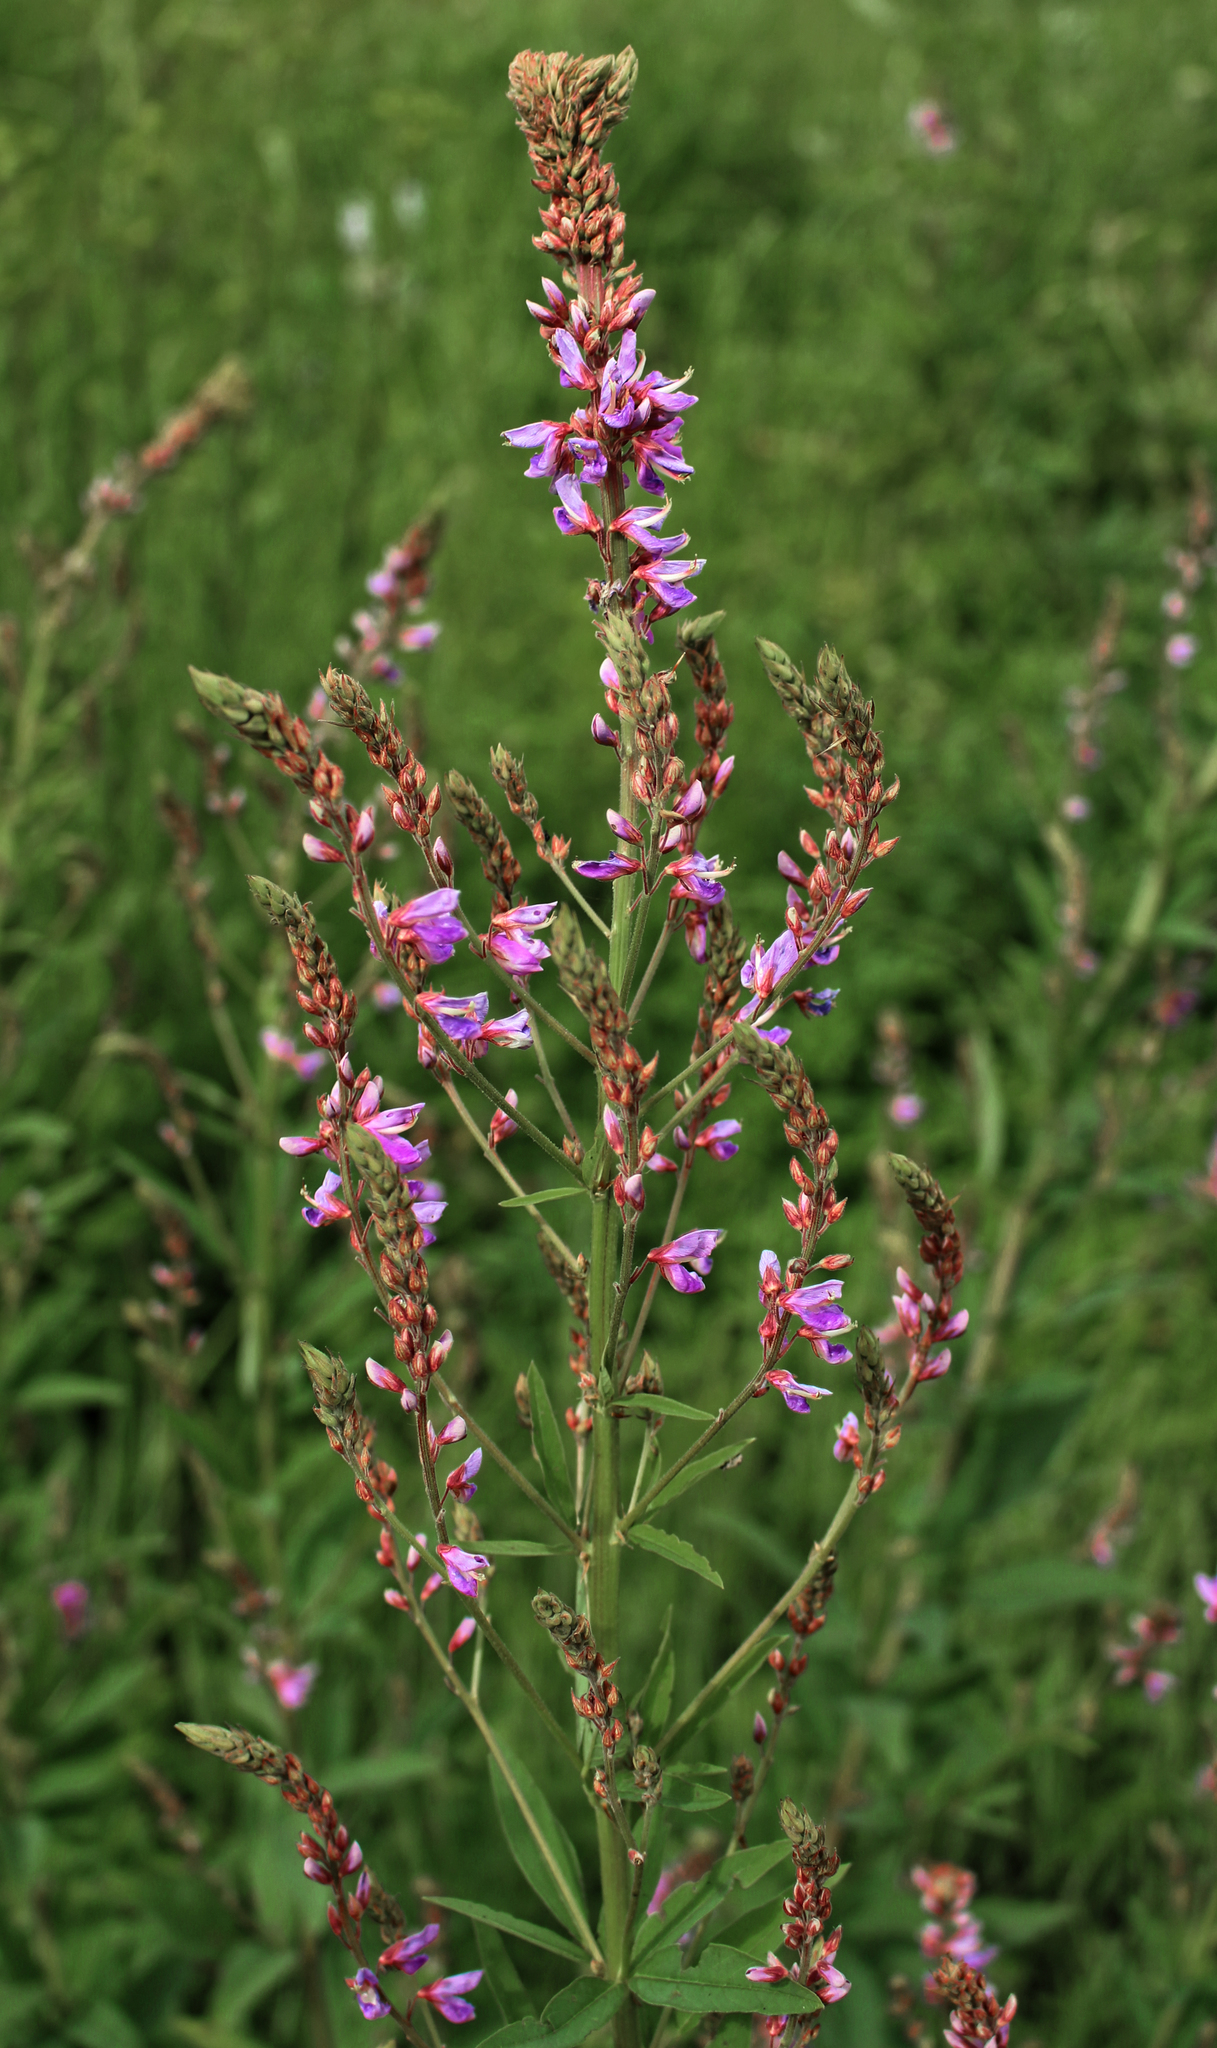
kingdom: Plantae
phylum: Tracheophyta
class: Magnoliopsida
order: Fabales
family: Fabaceae
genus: Desmodium
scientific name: Desmodium canadense
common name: Canada tick-trefoil
